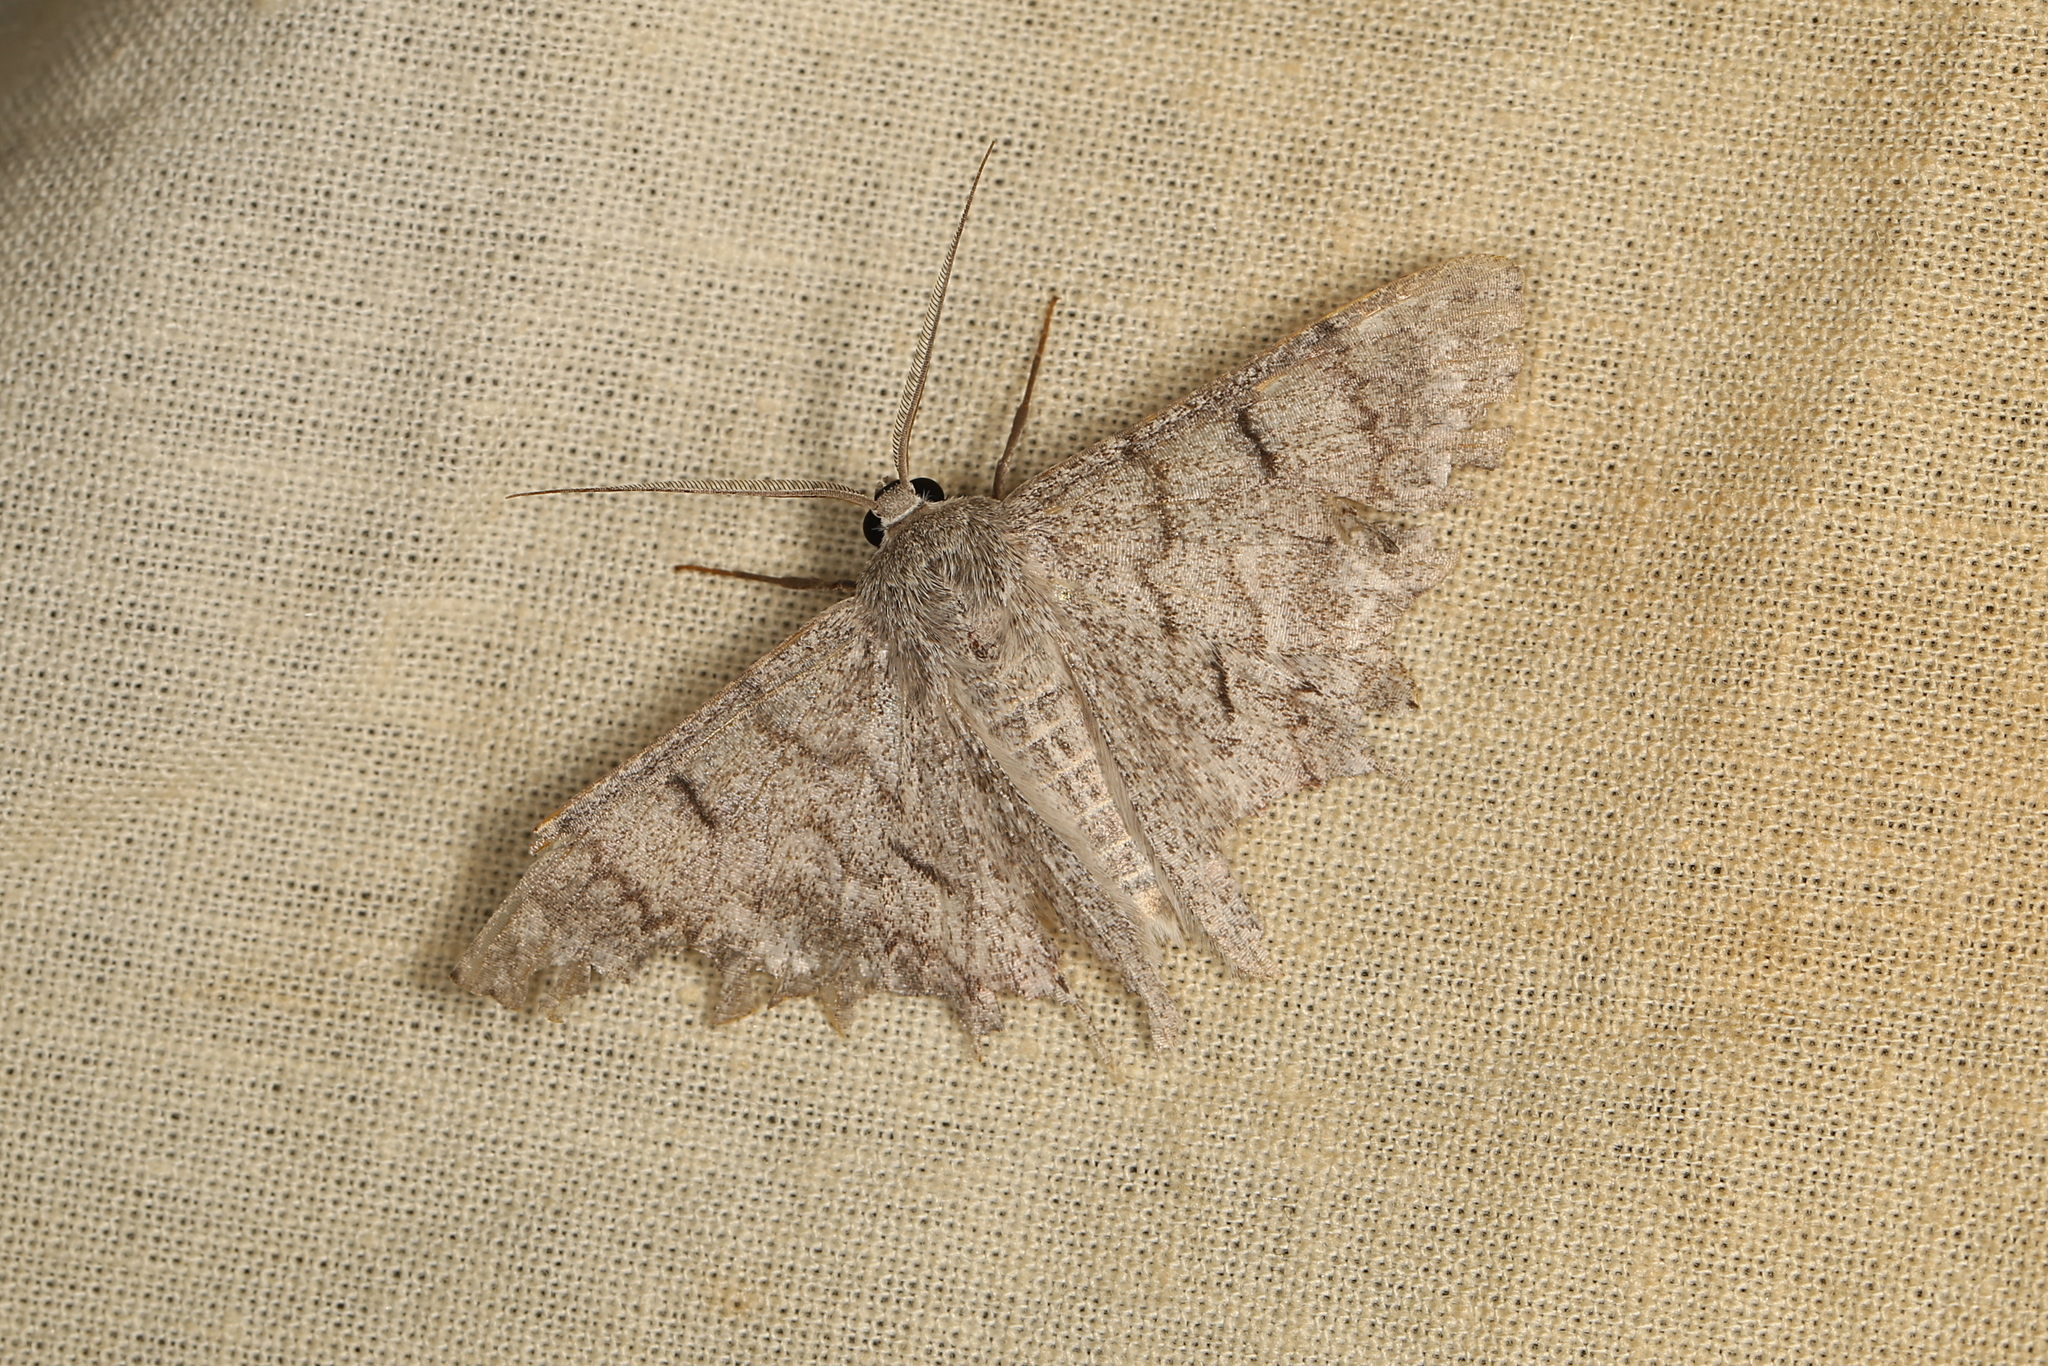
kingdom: Animalia
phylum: Arthropoda
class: Insecta
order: Lepidoptera
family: Geometridae
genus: Crypsiphona
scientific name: Crypsiphona ocultaria
